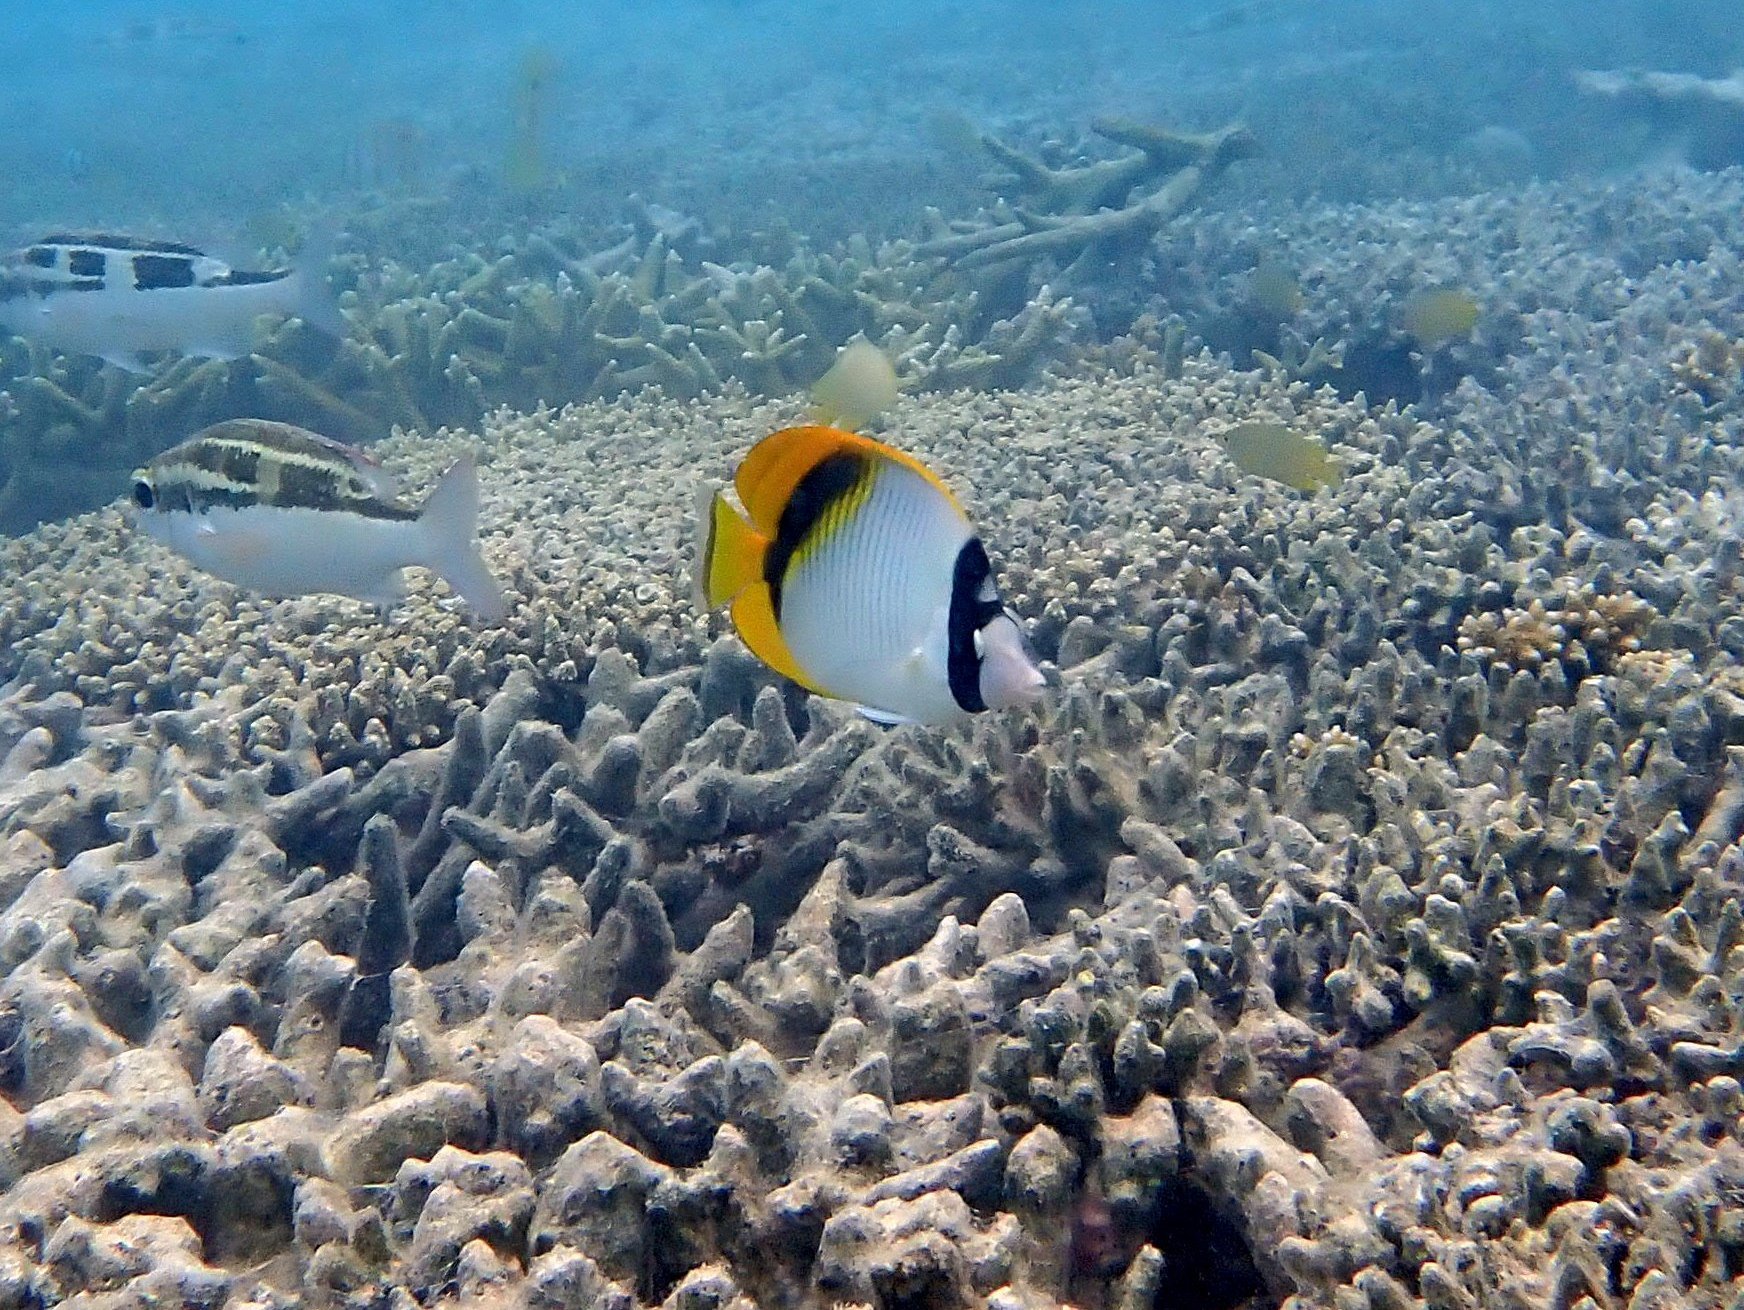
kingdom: Animalia
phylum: Chordata
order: Perciformes
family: Chaetodontidae
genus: Chaetodon
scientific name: Chaetodon lineolatus
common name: Lined butterflyfish
